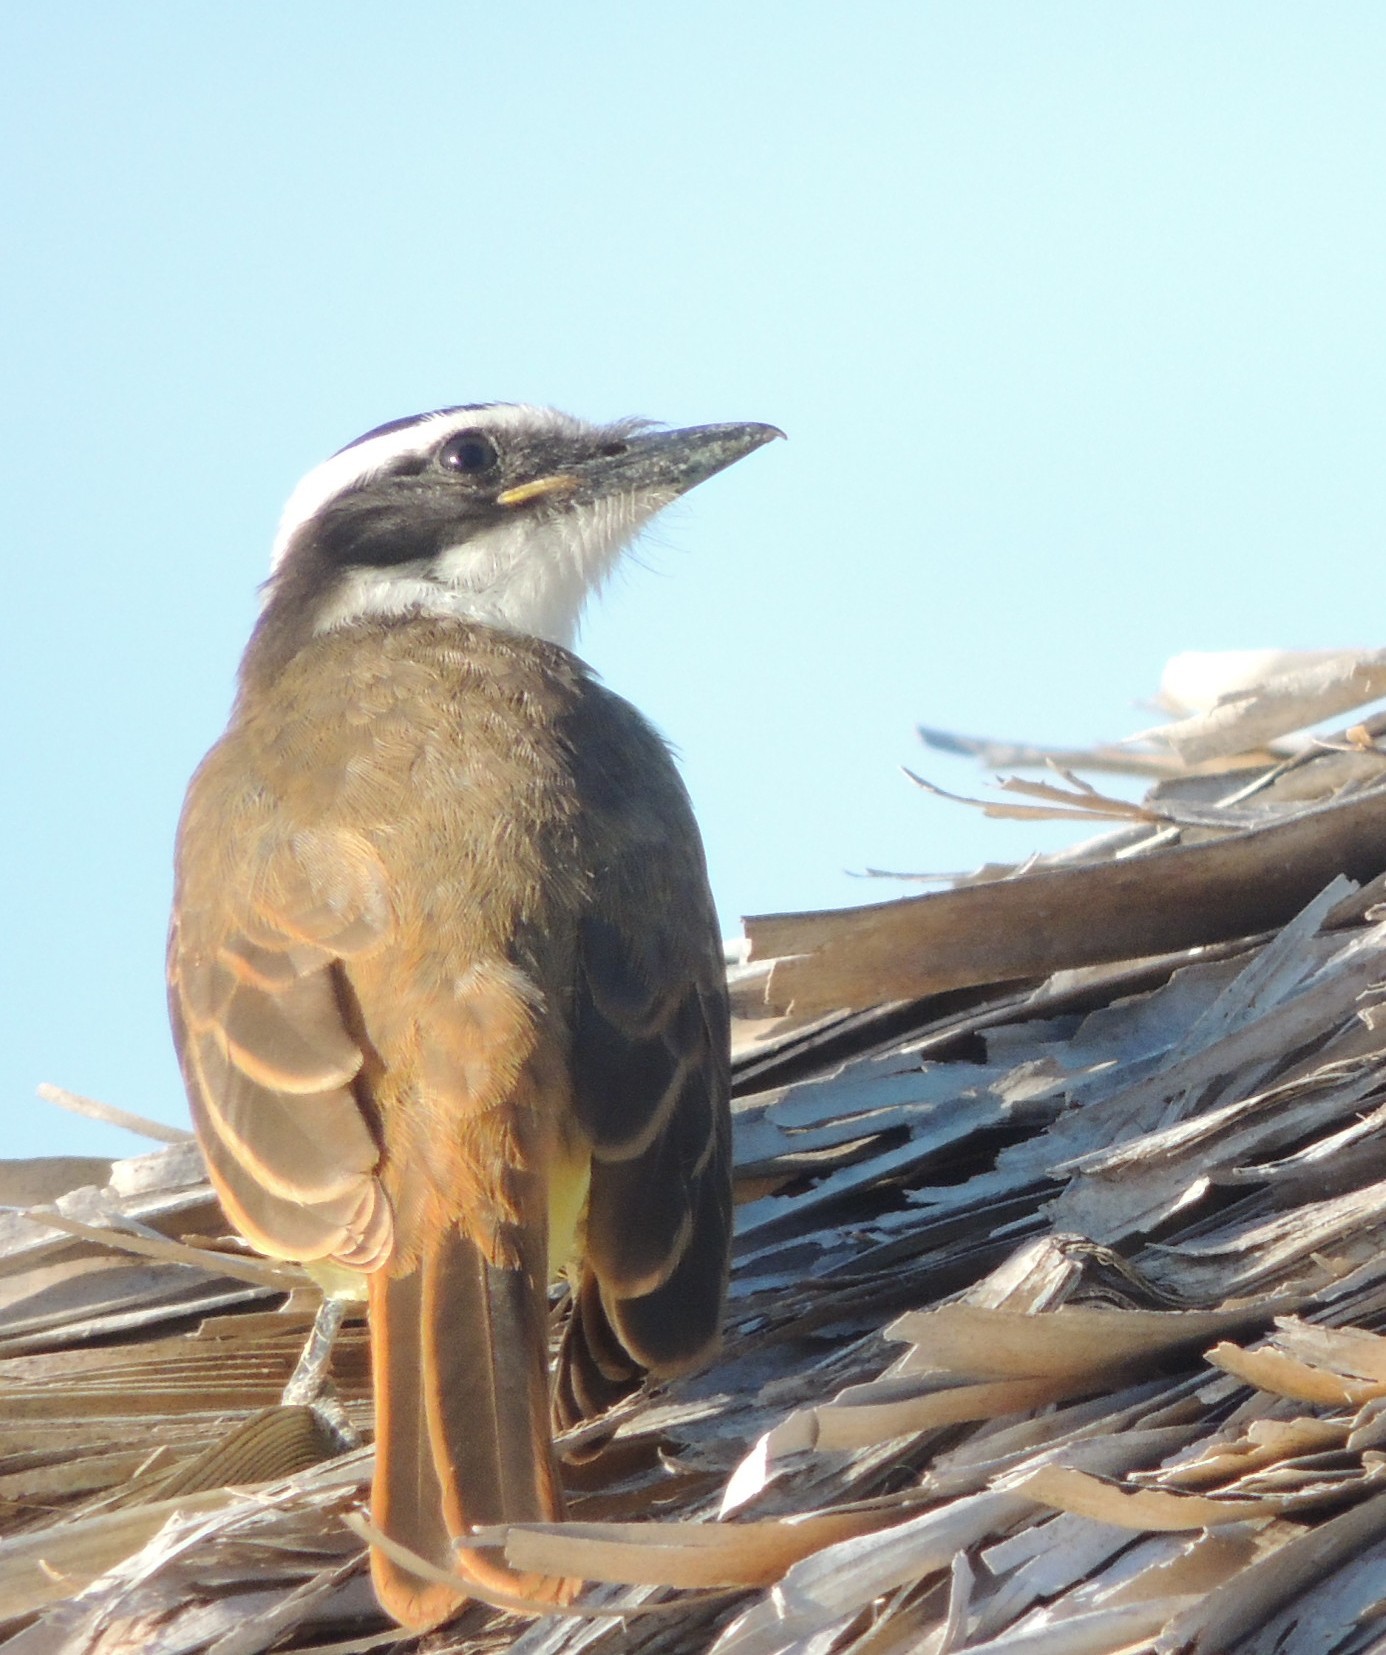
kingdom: Animalia
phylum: Chordata
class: Aves
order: Passeriformes
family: Tyrannidae
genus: Pitangus
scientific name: Pitangus sulphuratus
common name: Great kiskadee
